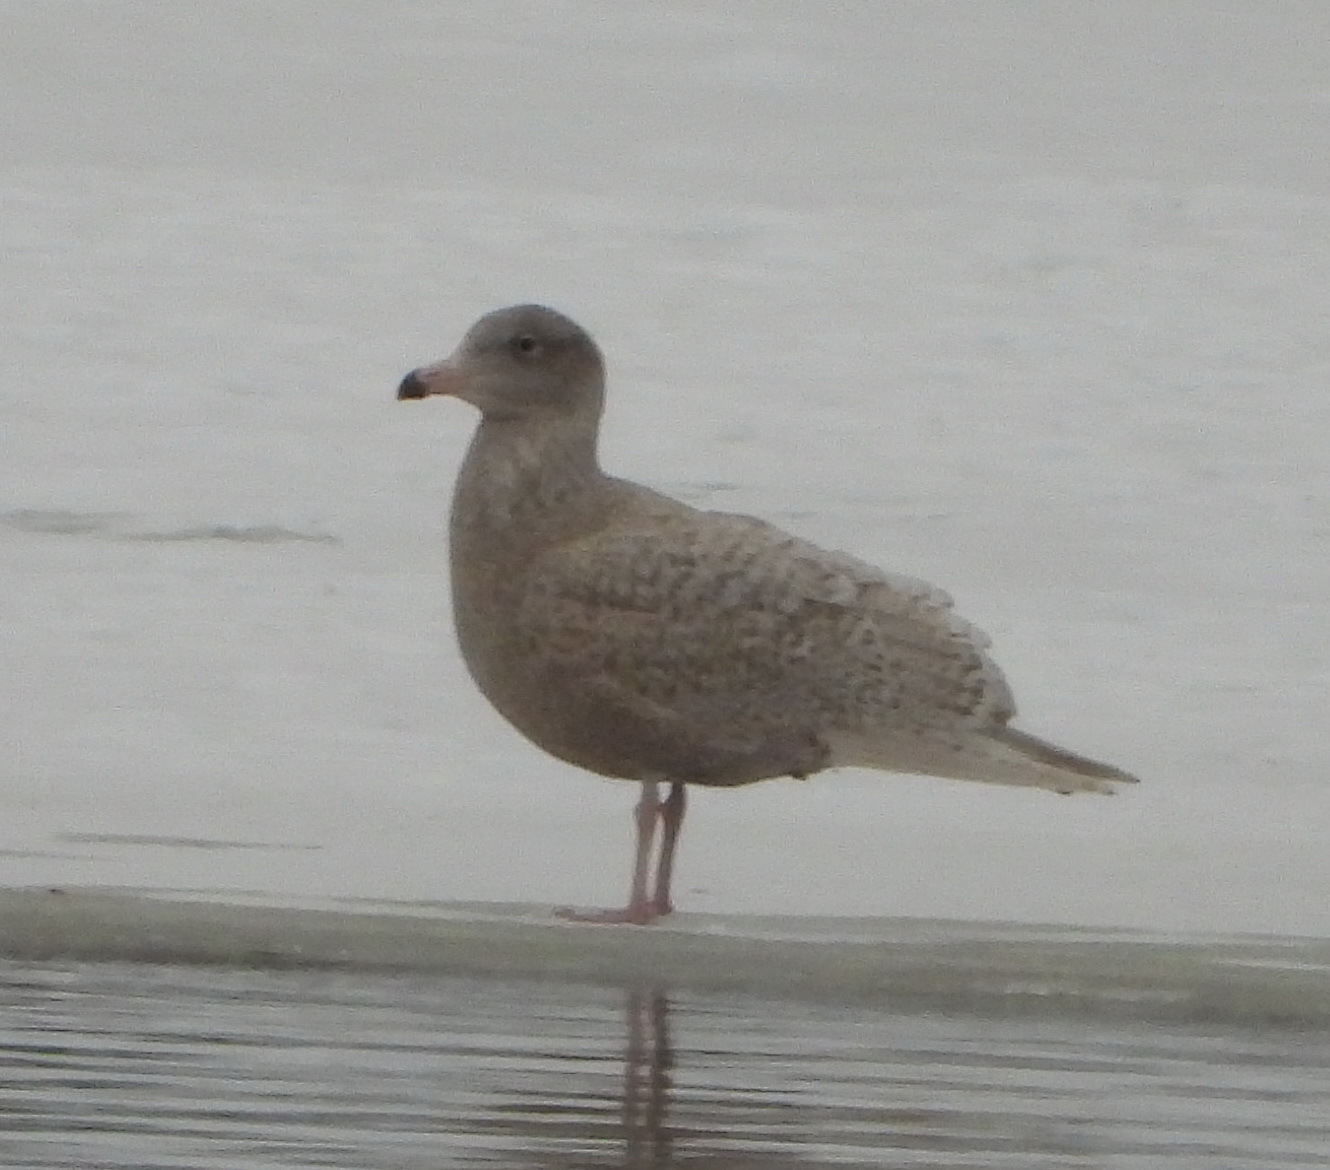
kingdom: Animalia
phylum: Chordata
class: Aves
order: Charadriiformes
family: Laridae
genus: Larus
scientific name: Larus hyperboreus
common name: Glaucous gull
